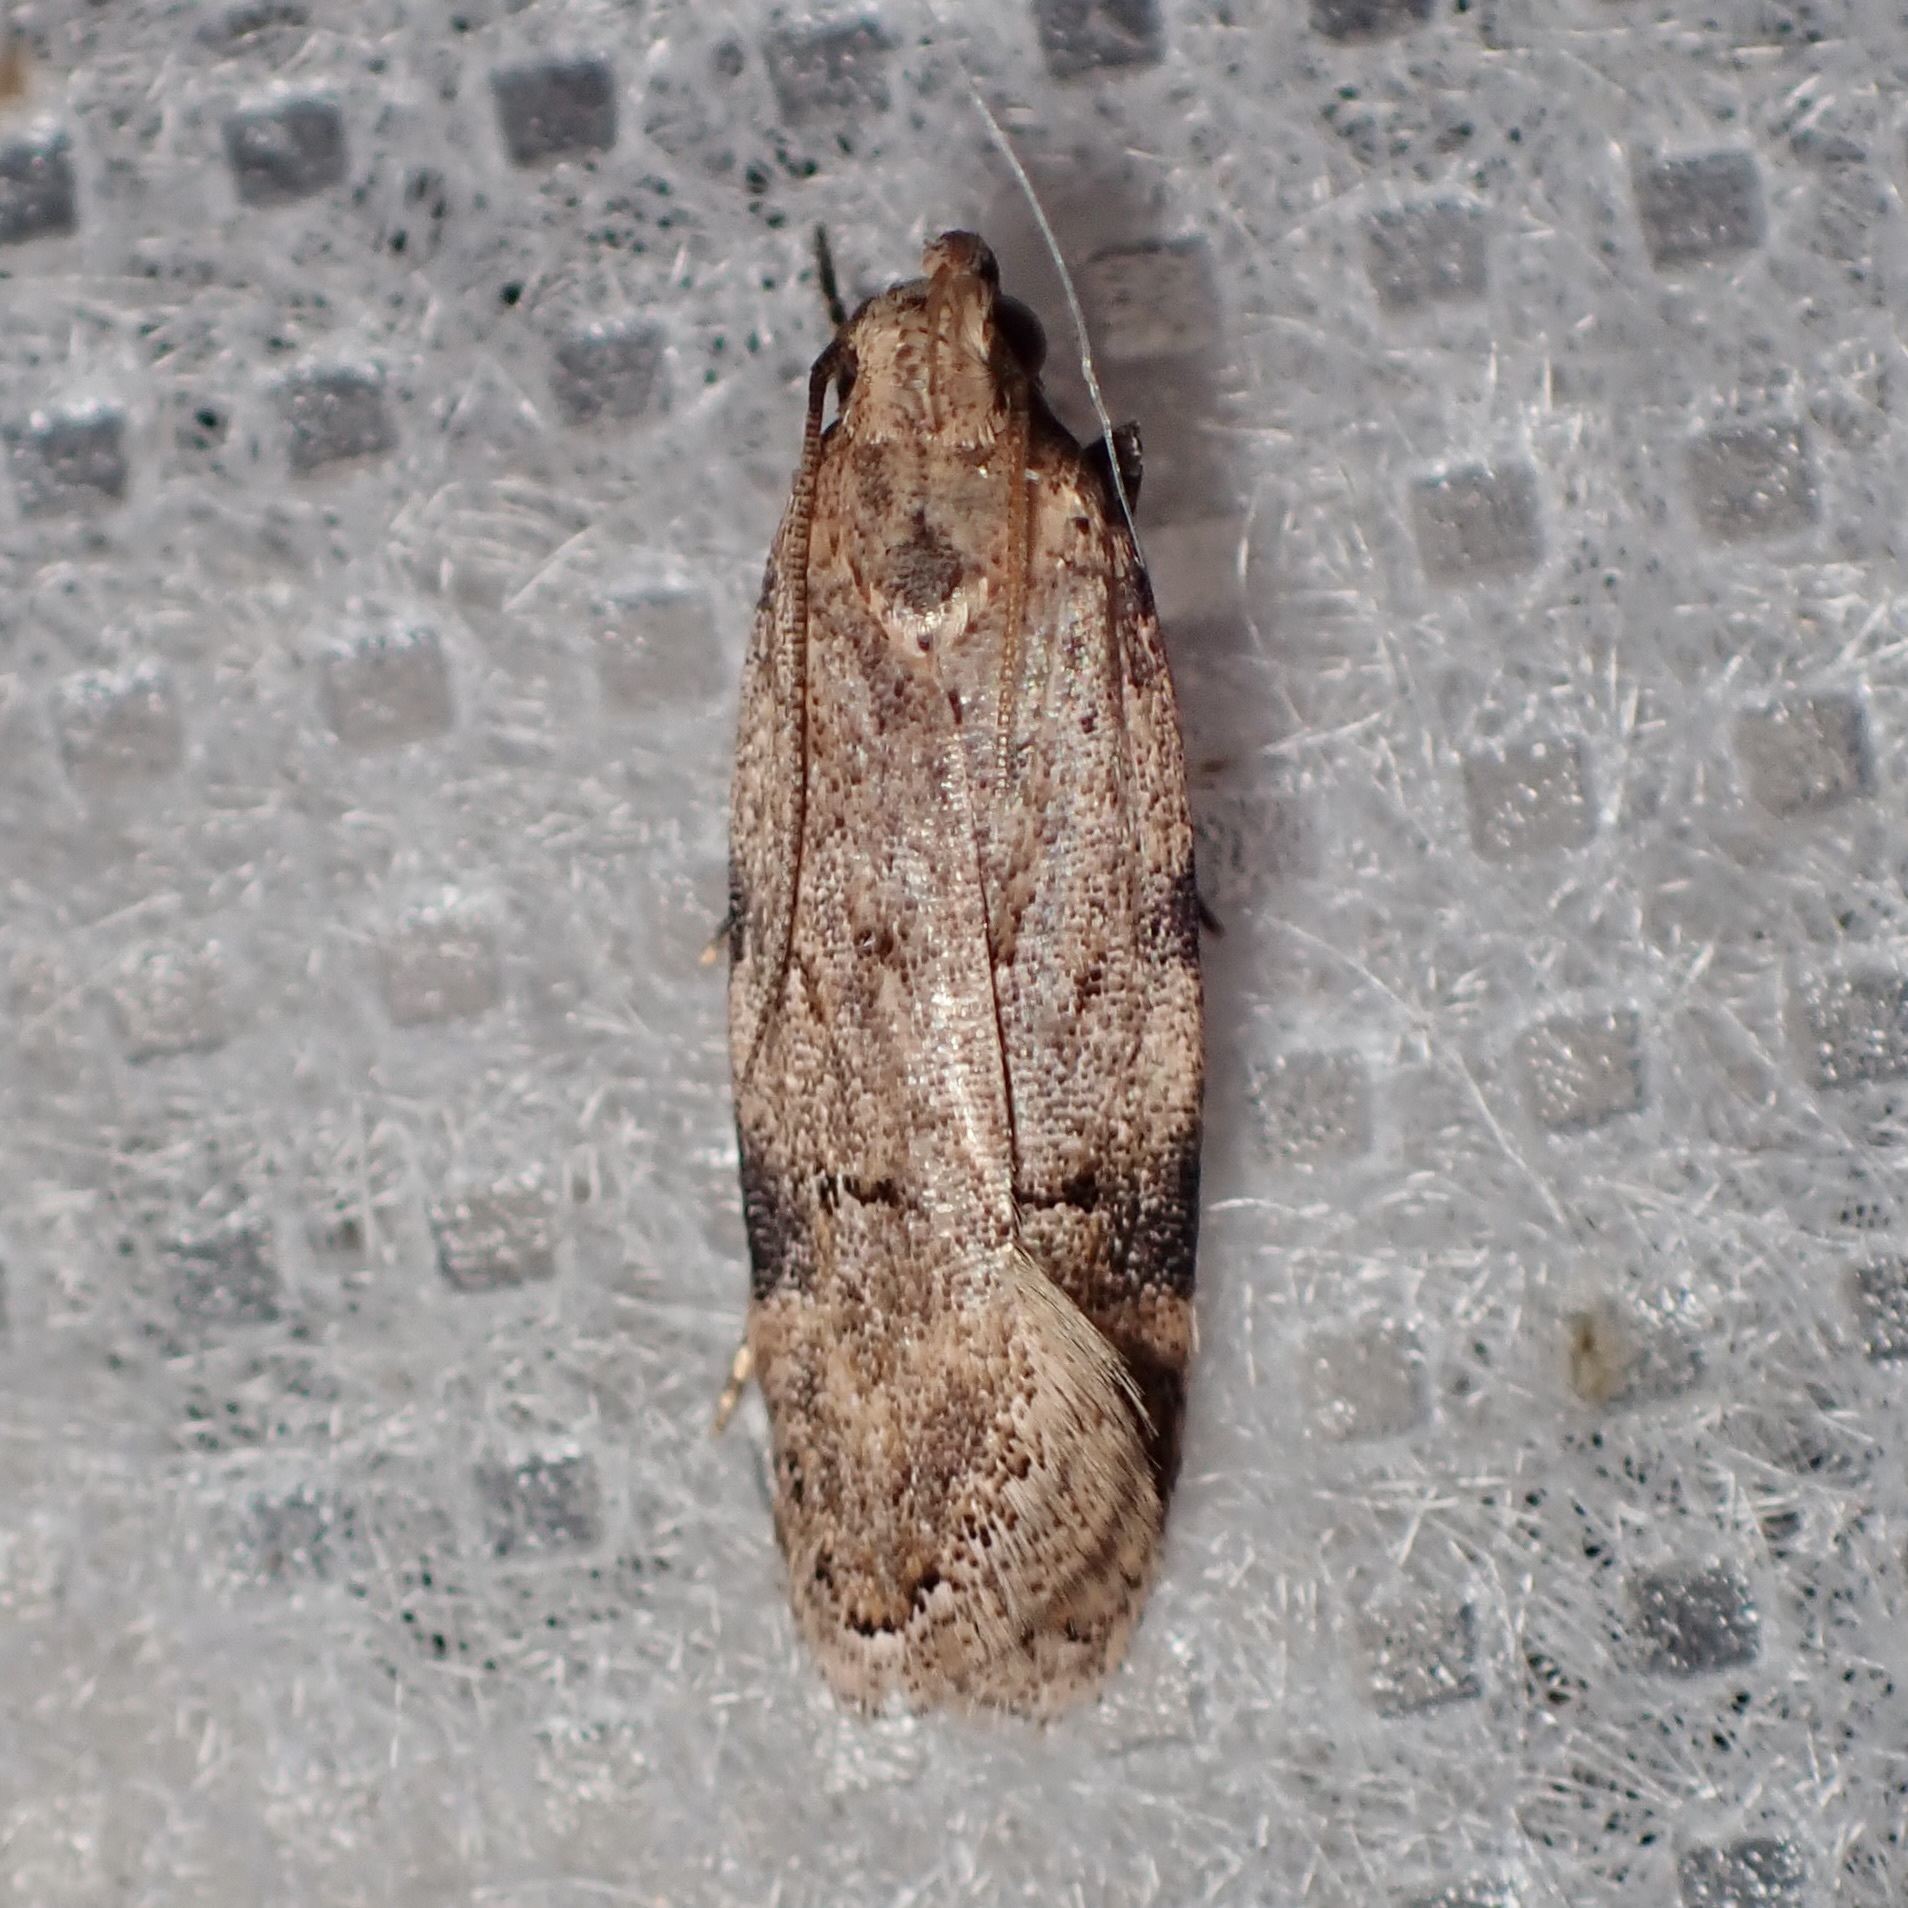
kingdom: Animalia
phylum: Arthropoda
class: Insecta
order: Lepidoptera
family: Gelechiidae
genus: Friseria
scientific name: Friseria cockerelli
